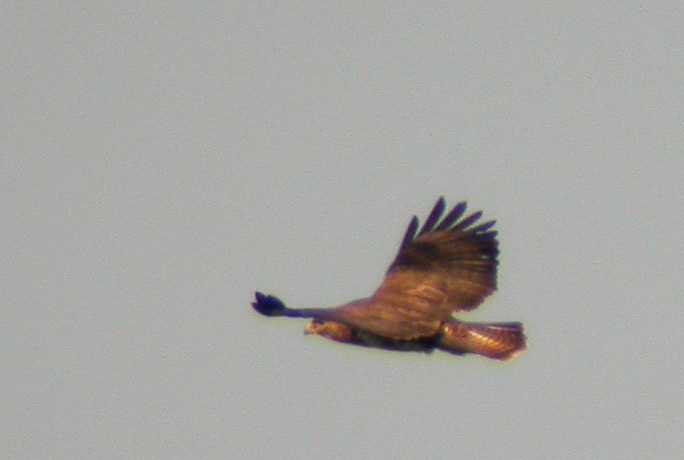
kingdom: Animalia
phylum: Chordata
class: Aves
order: Accipitriformes
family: Accipitridae
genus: Buteo
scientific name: Buteo buteo
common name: Common buzzard
